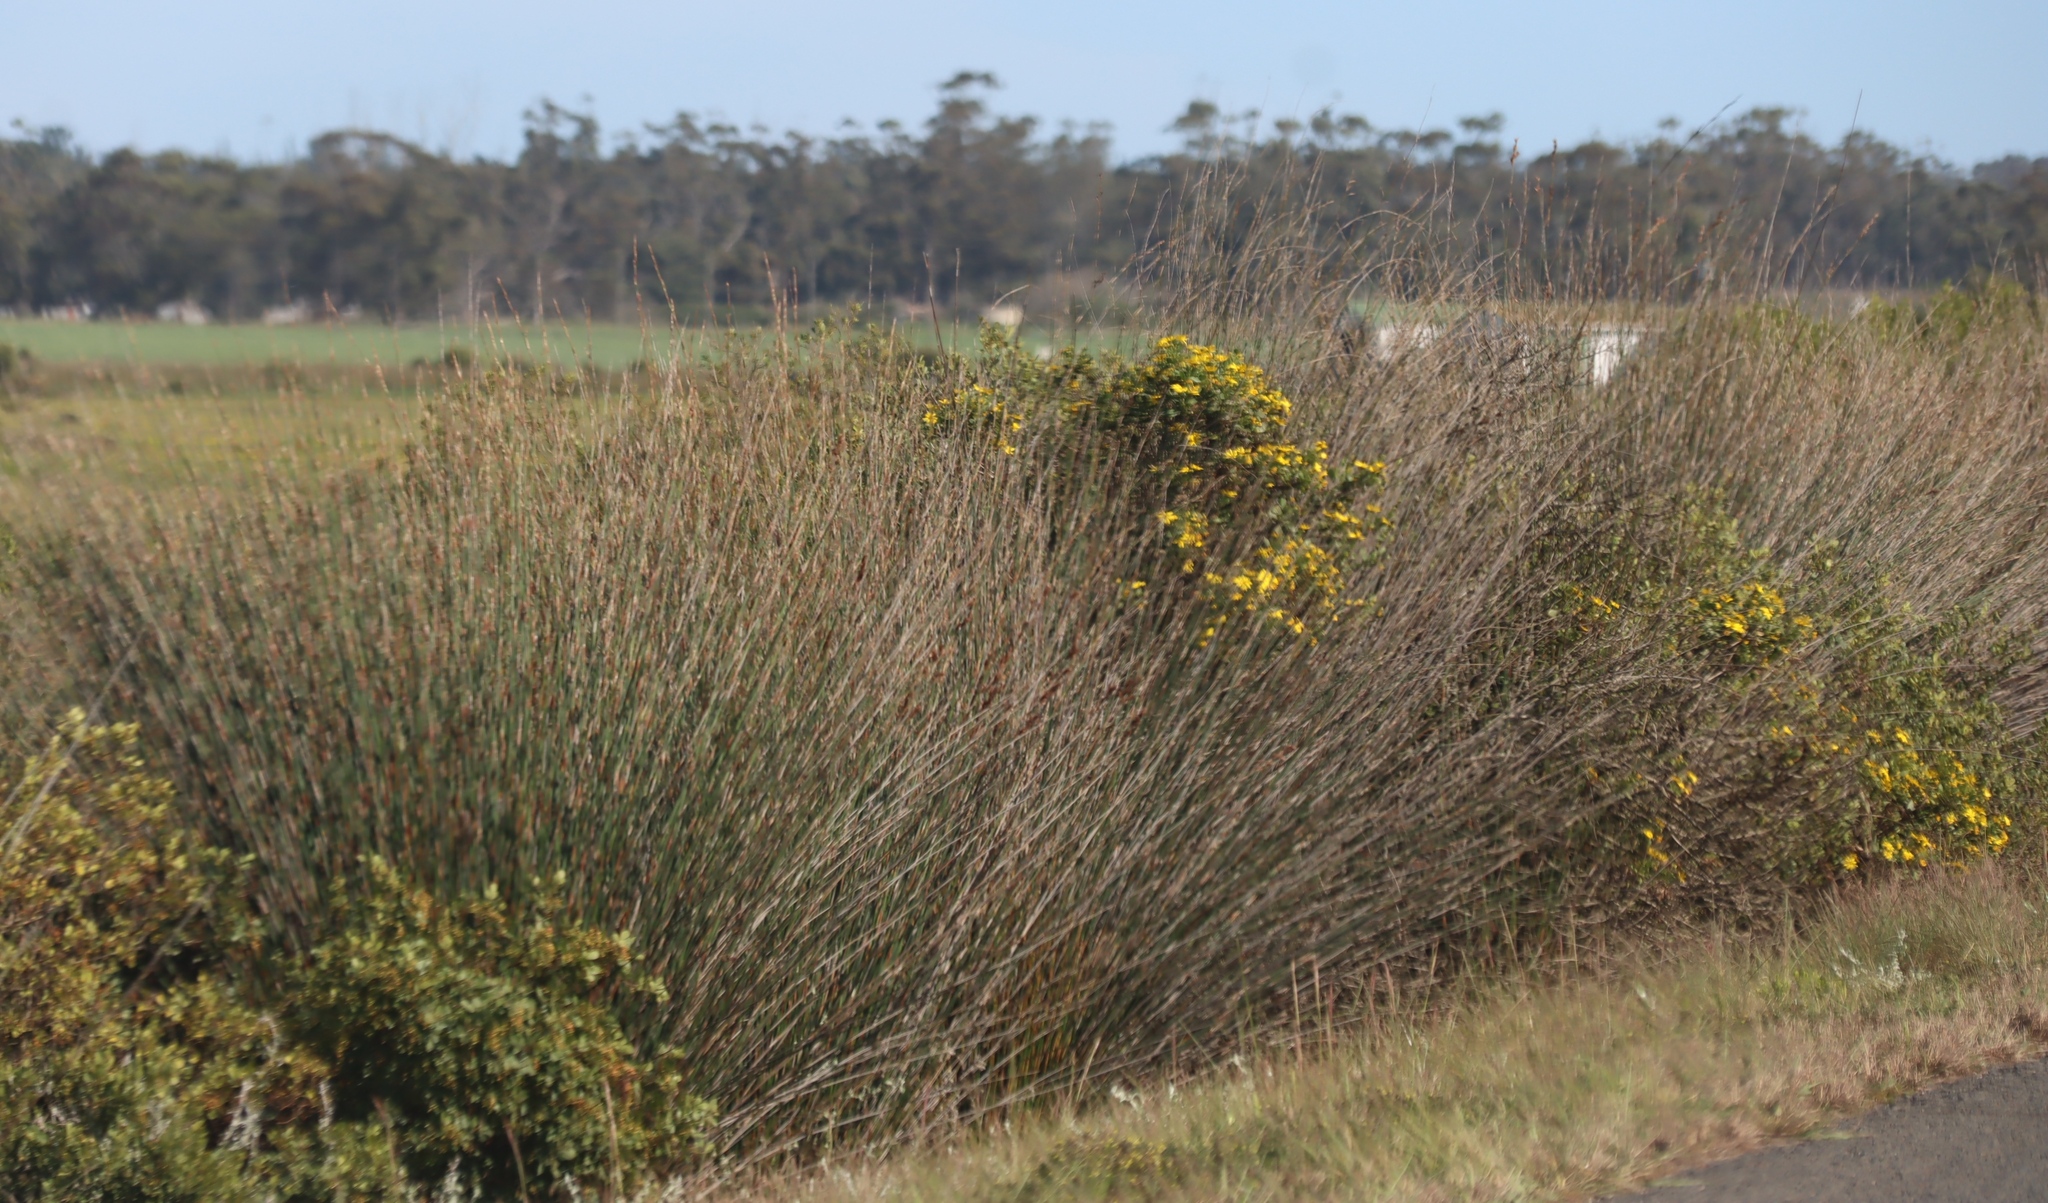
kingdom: Plantae
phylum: Tracheophyta
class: Magnoliopsida
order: Asterales
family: Asteraceae
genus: Osteospermum
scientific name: Osteospermum moniliferum
